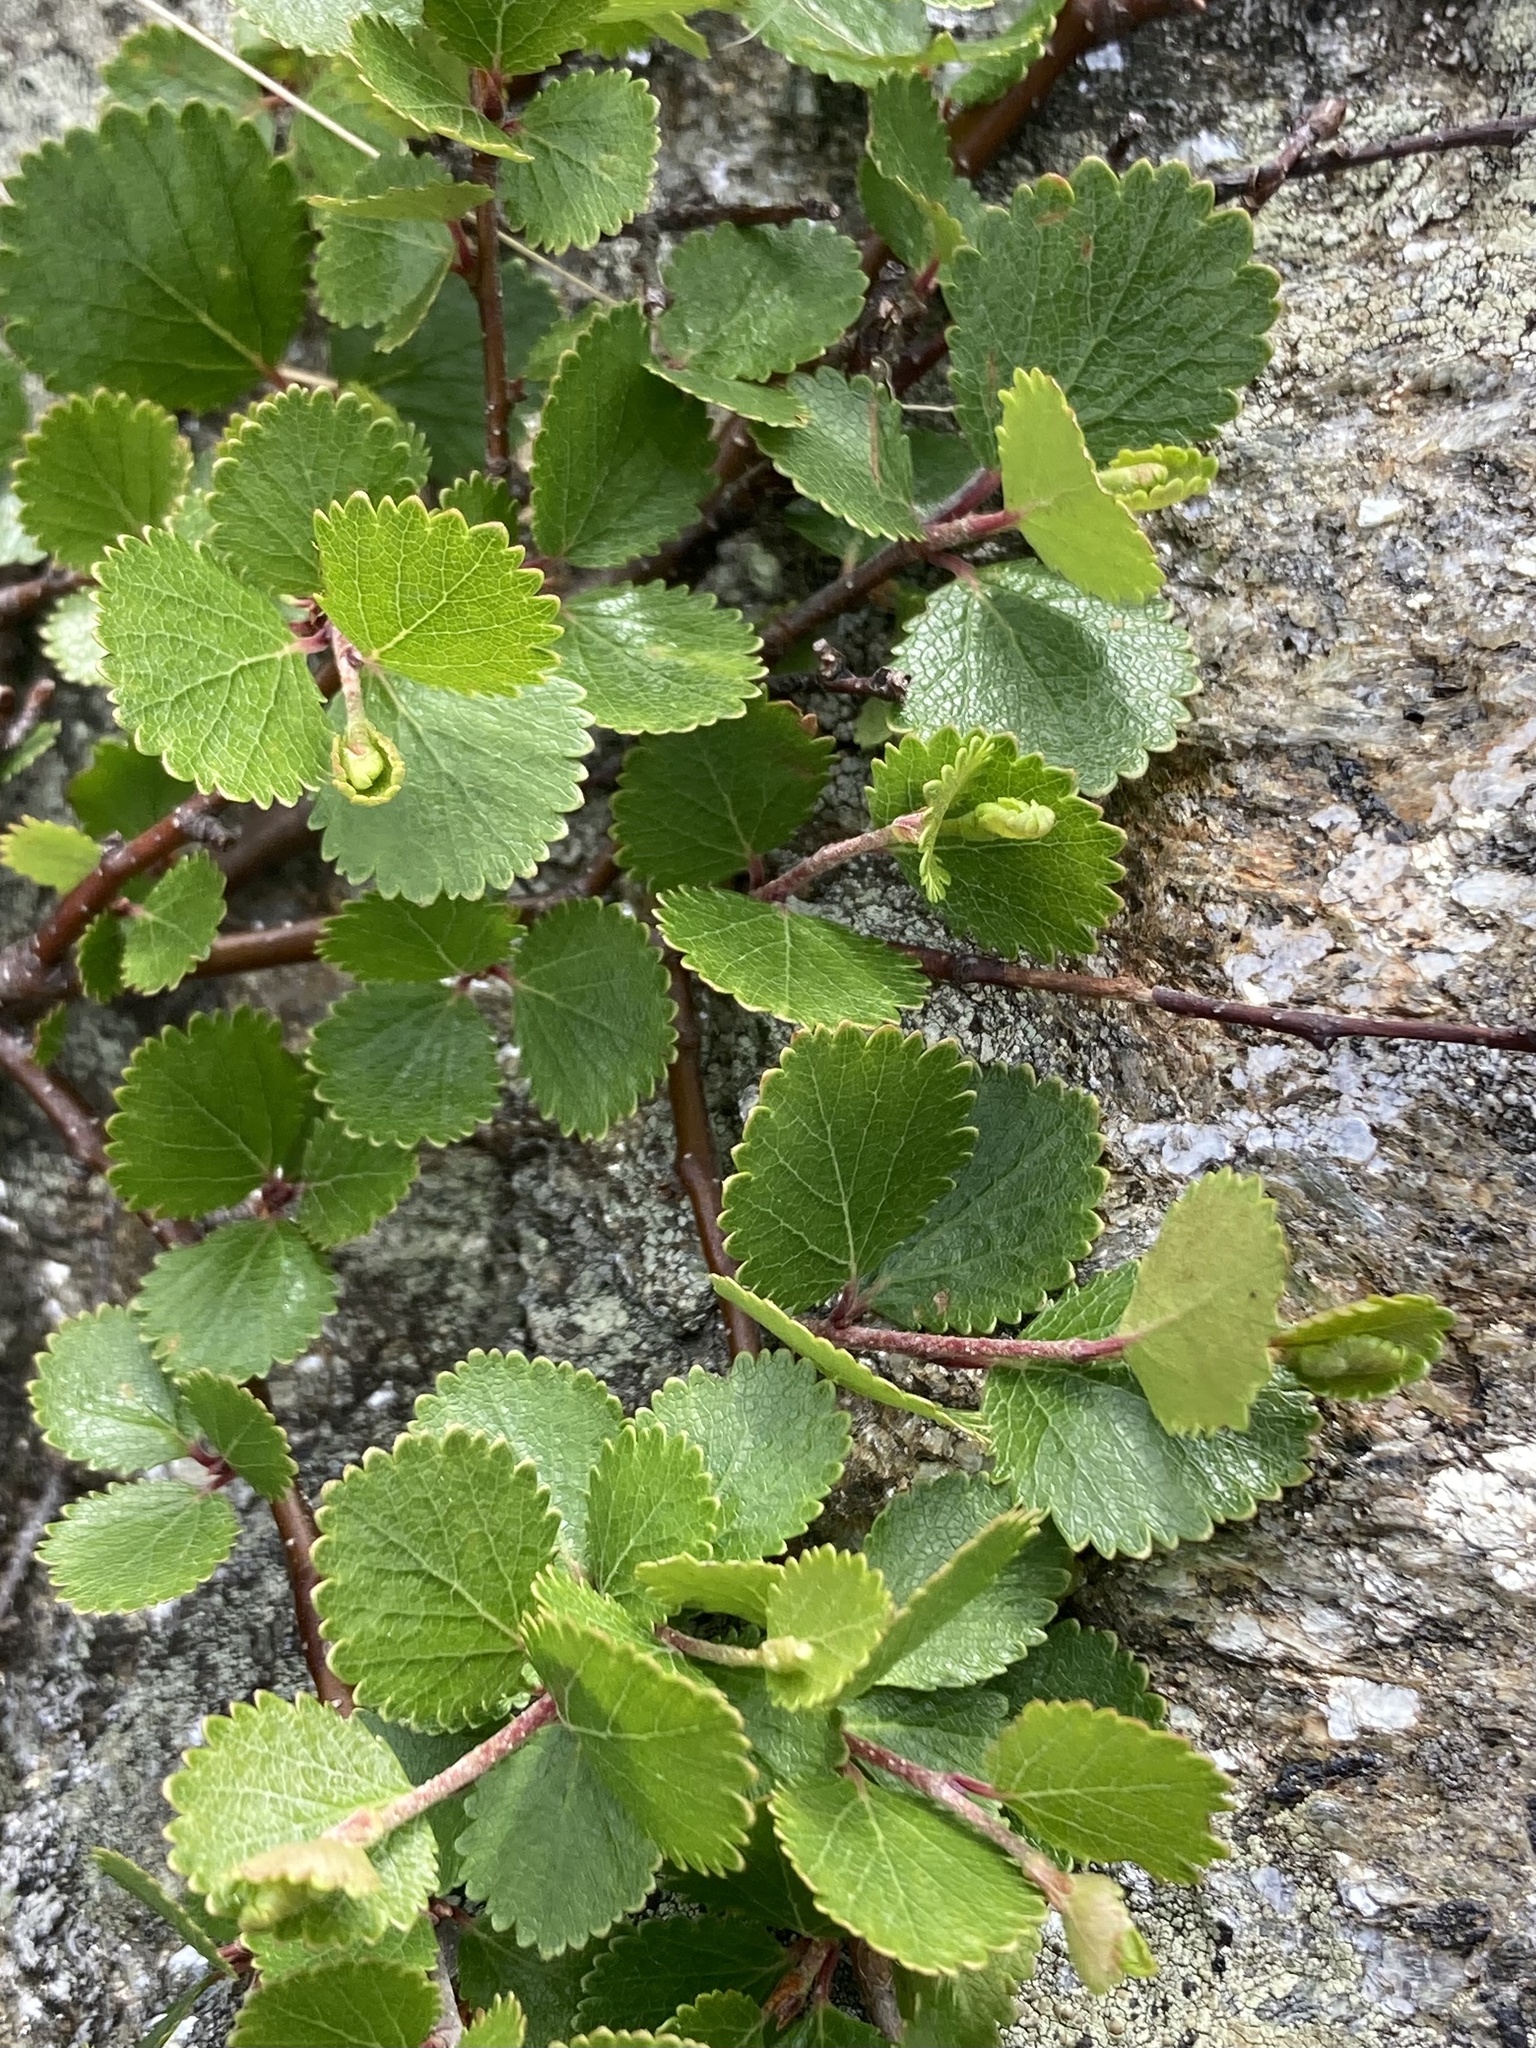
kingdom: Plantae
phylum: Tracheophyta
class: Magnoliopsida
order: Fagales
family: Betulaceae
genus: Betula
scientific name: Betula glandulosa
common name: Dwarf birch
